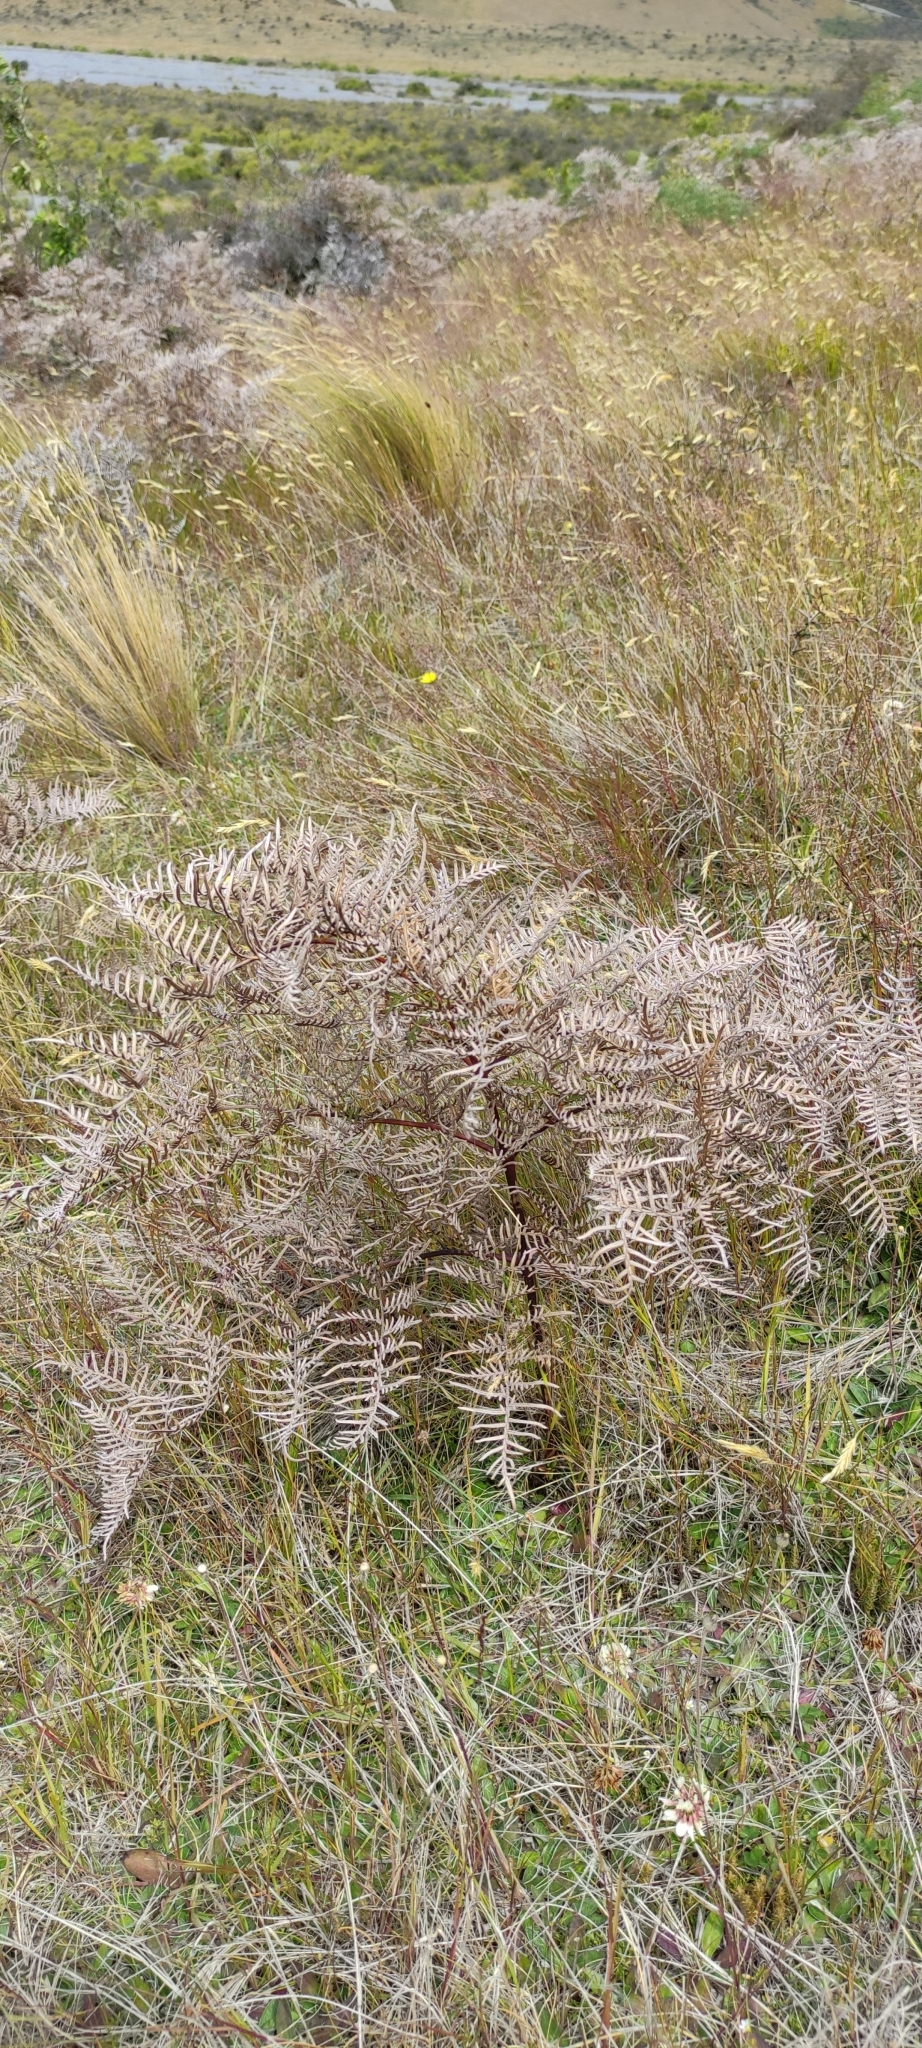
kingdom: Plantae
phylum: Tracheophyta
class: Polypodiopsida
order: Polypodiales
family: Dennstaedtiaceae
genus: Pteridium
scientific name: Pteridium esculentum
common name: Bracken fern
